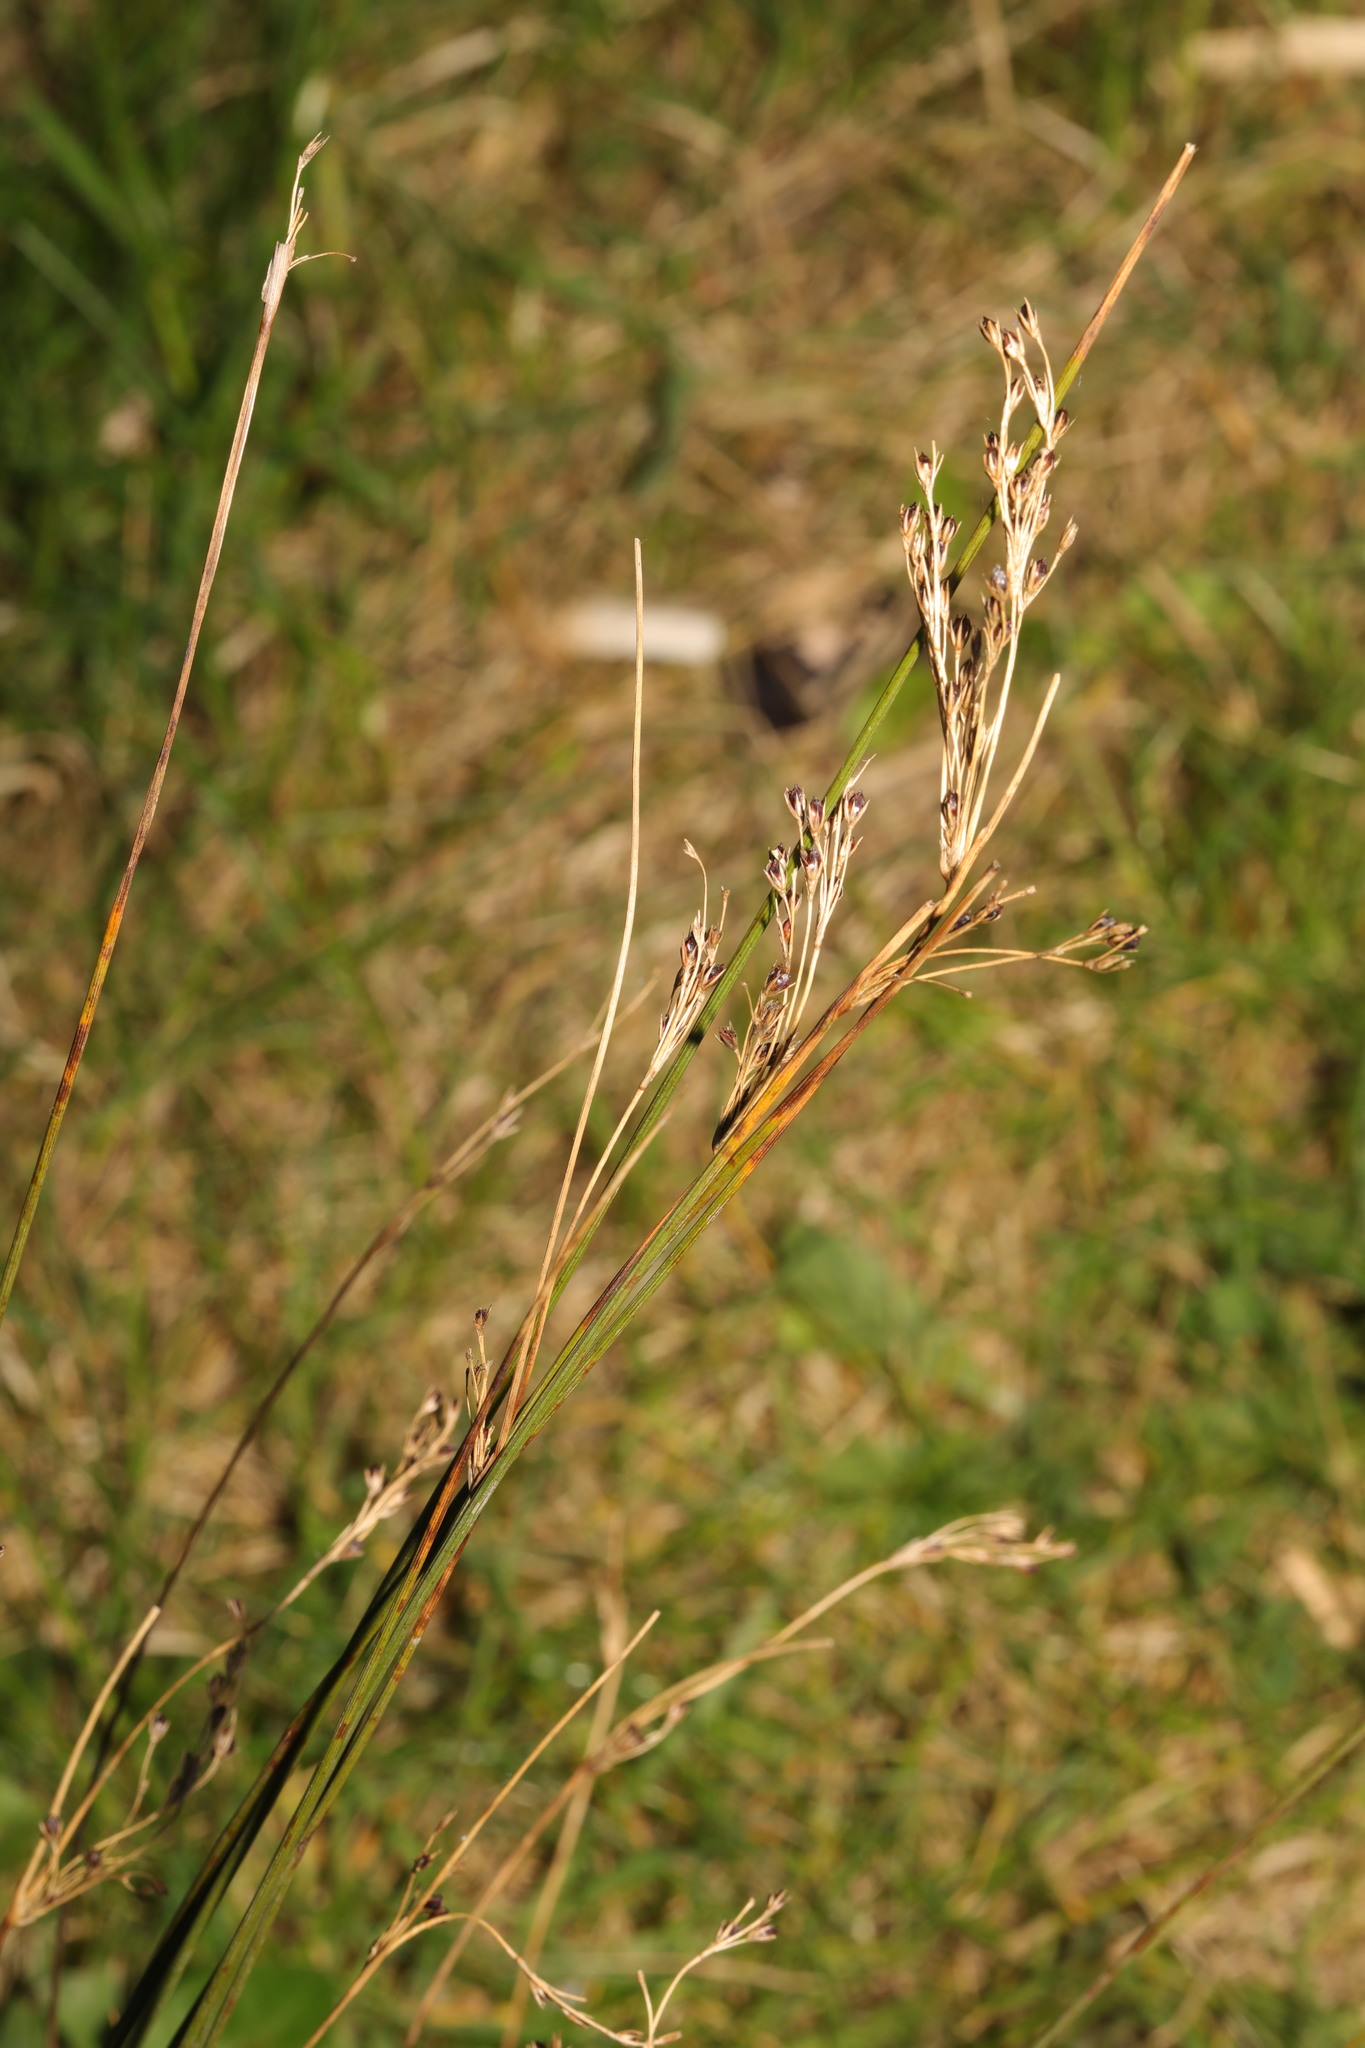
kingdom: Plantae
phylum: Tracheophyta
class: Liliopsida
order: Poales
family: Juncaceae
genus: Juncus
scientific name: Juncus inflexus
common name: Hard rush
